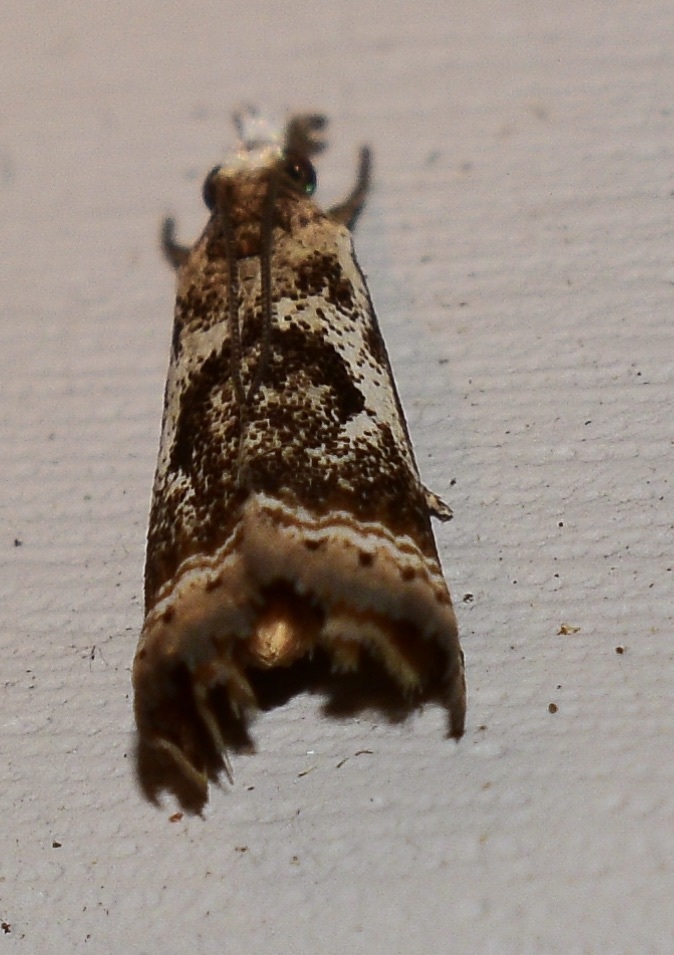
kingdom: Animalia
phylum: Arthropoda
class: Insecta
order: Lepidoptera
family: Crambidae
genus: Microcrambus
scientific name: Microcrambus elegans
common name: Elegant grass-veneer
